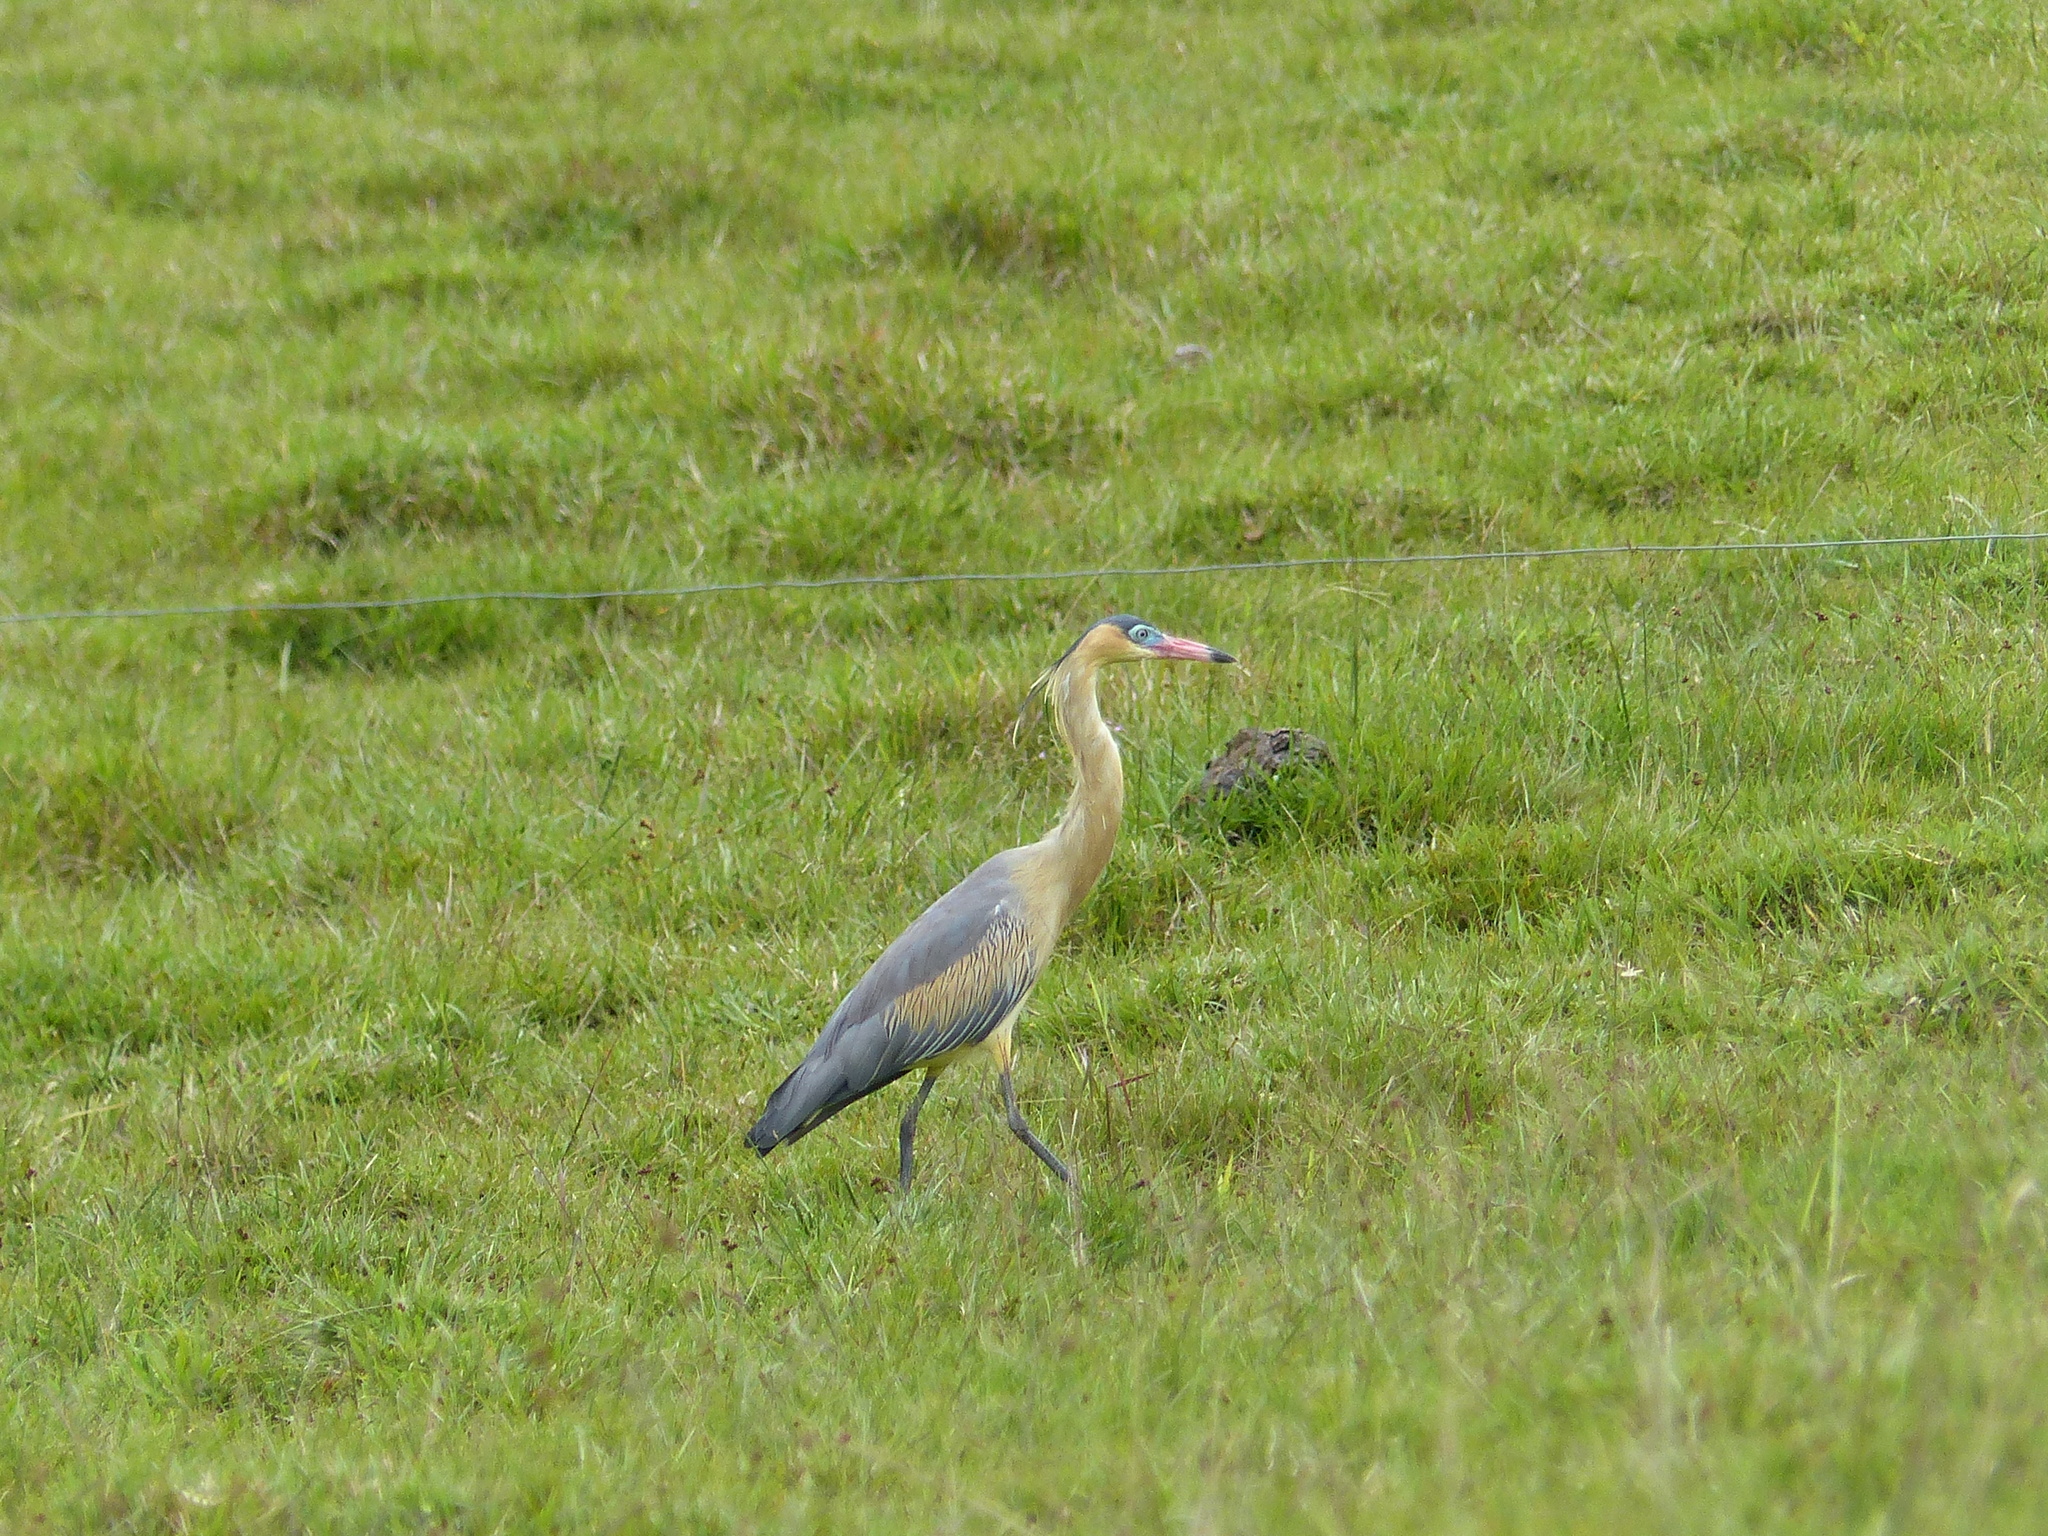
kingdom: Animalia
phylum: Chordata
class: Aves
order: Pelecaniformes
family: Ardeidae
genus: Syrigma
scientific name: Syrigma sibilatrix
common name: Whistling heron
